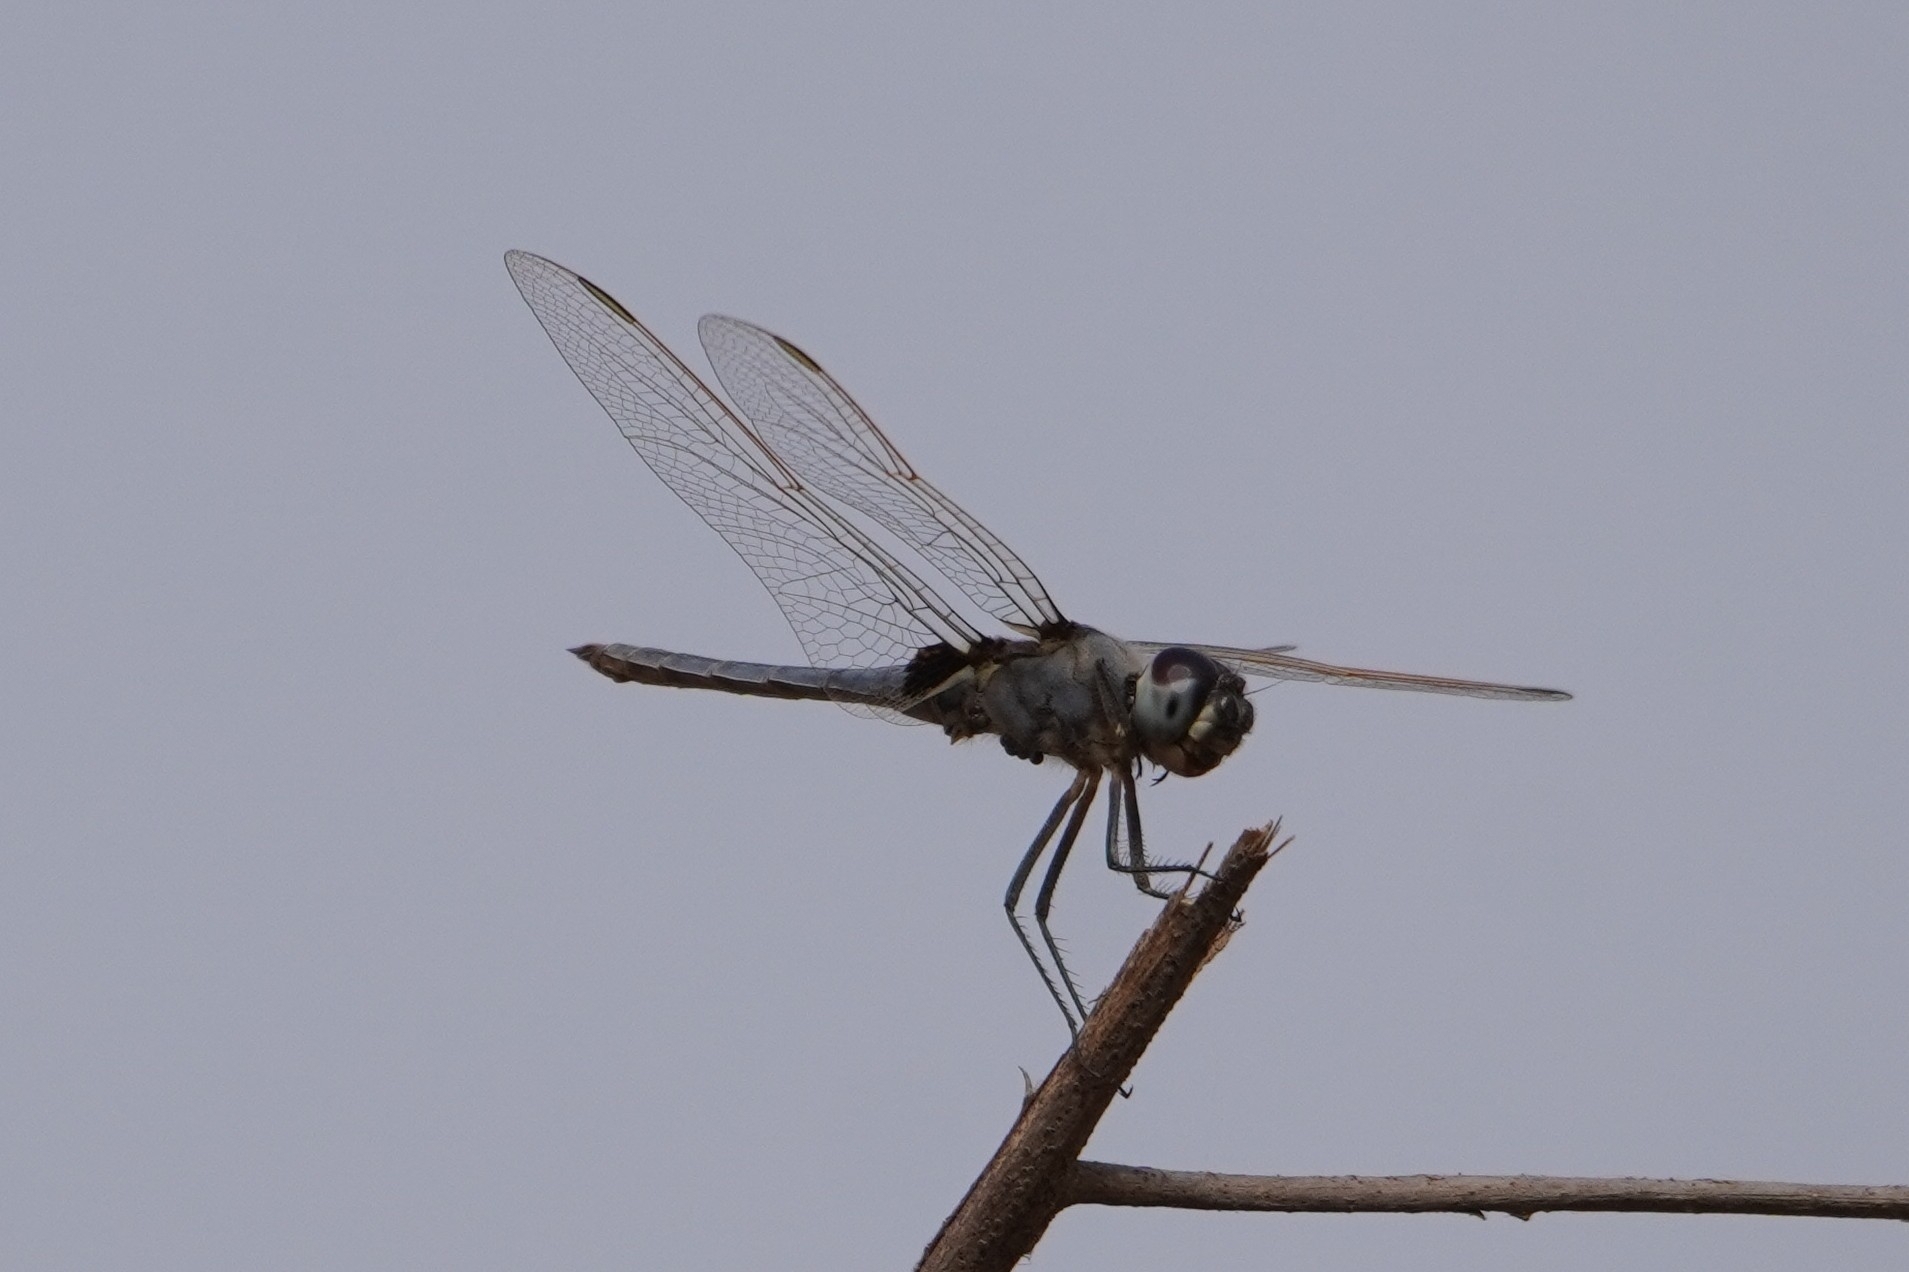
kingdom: Animalia
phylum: Arthropoda
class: Insecta
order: Odonata
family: Libellulidae
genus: Urothemis
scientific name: Urothemis edwardsii
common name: Blue basker
